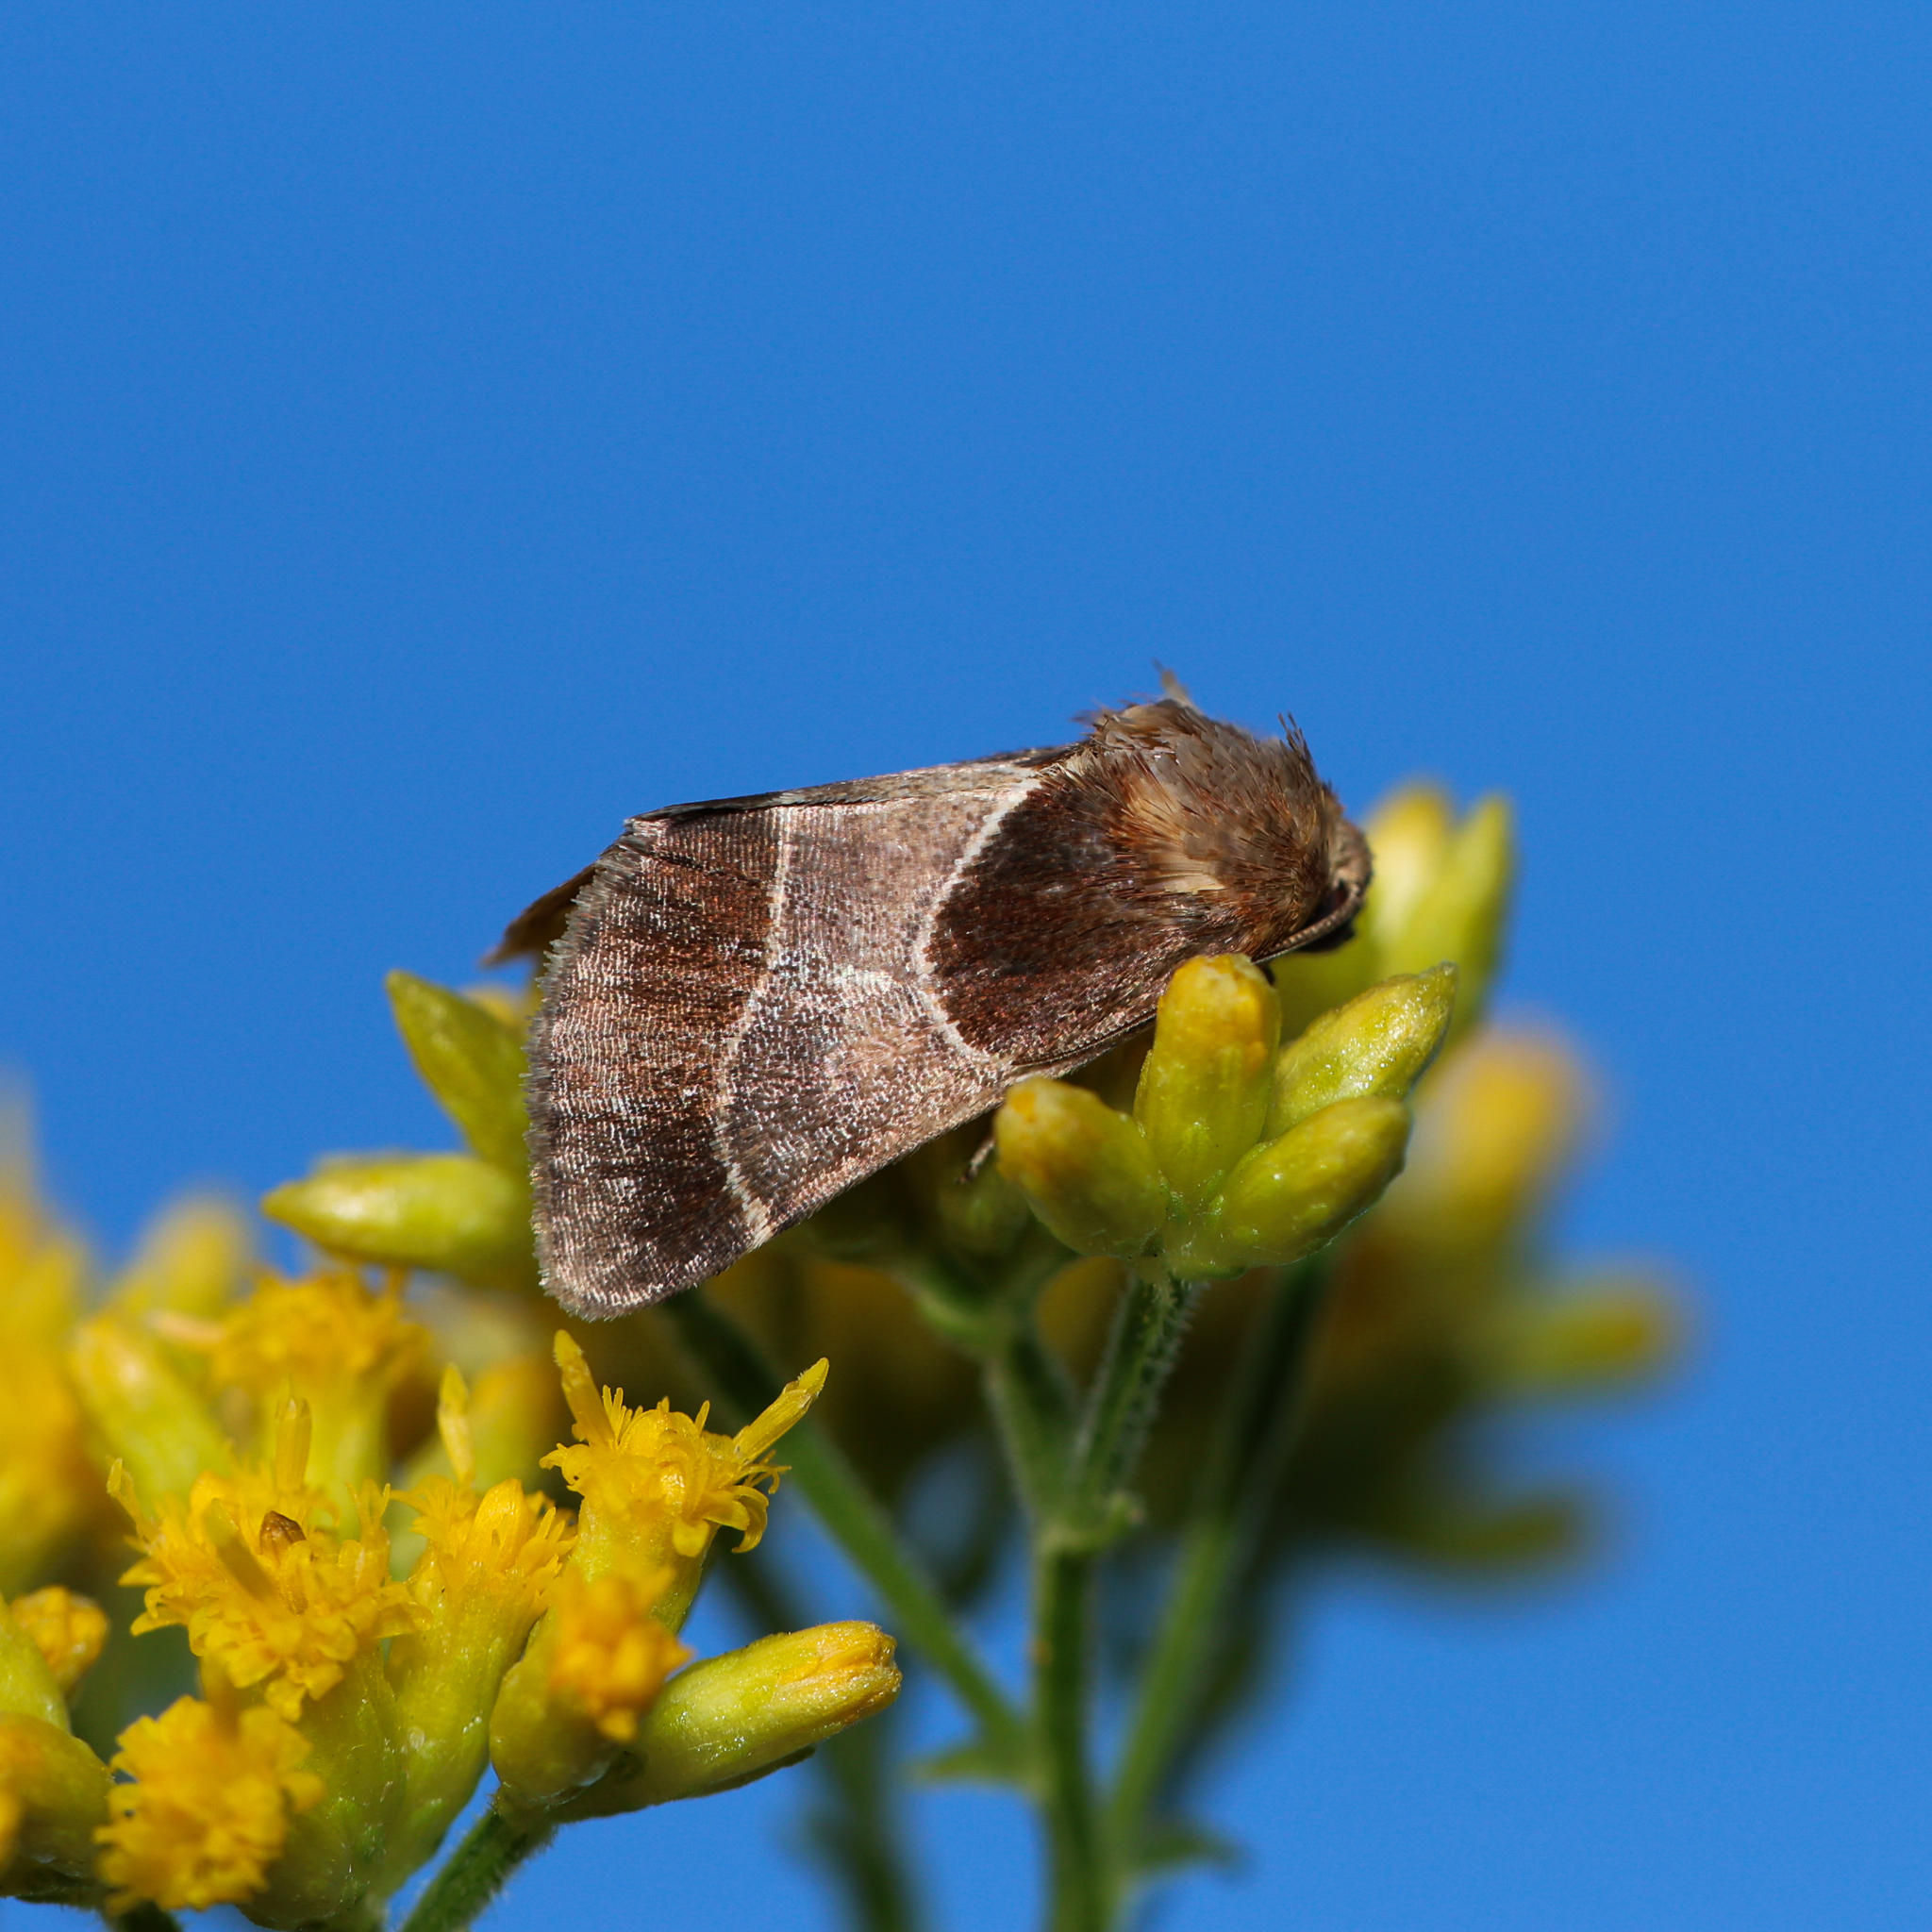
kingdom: Animalia
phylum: Arthropoda
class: Insecta
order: Lepidoptera
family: Noctuidae
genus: Schinia
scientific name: Schinia arcigera
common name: Arcigera flower moth
